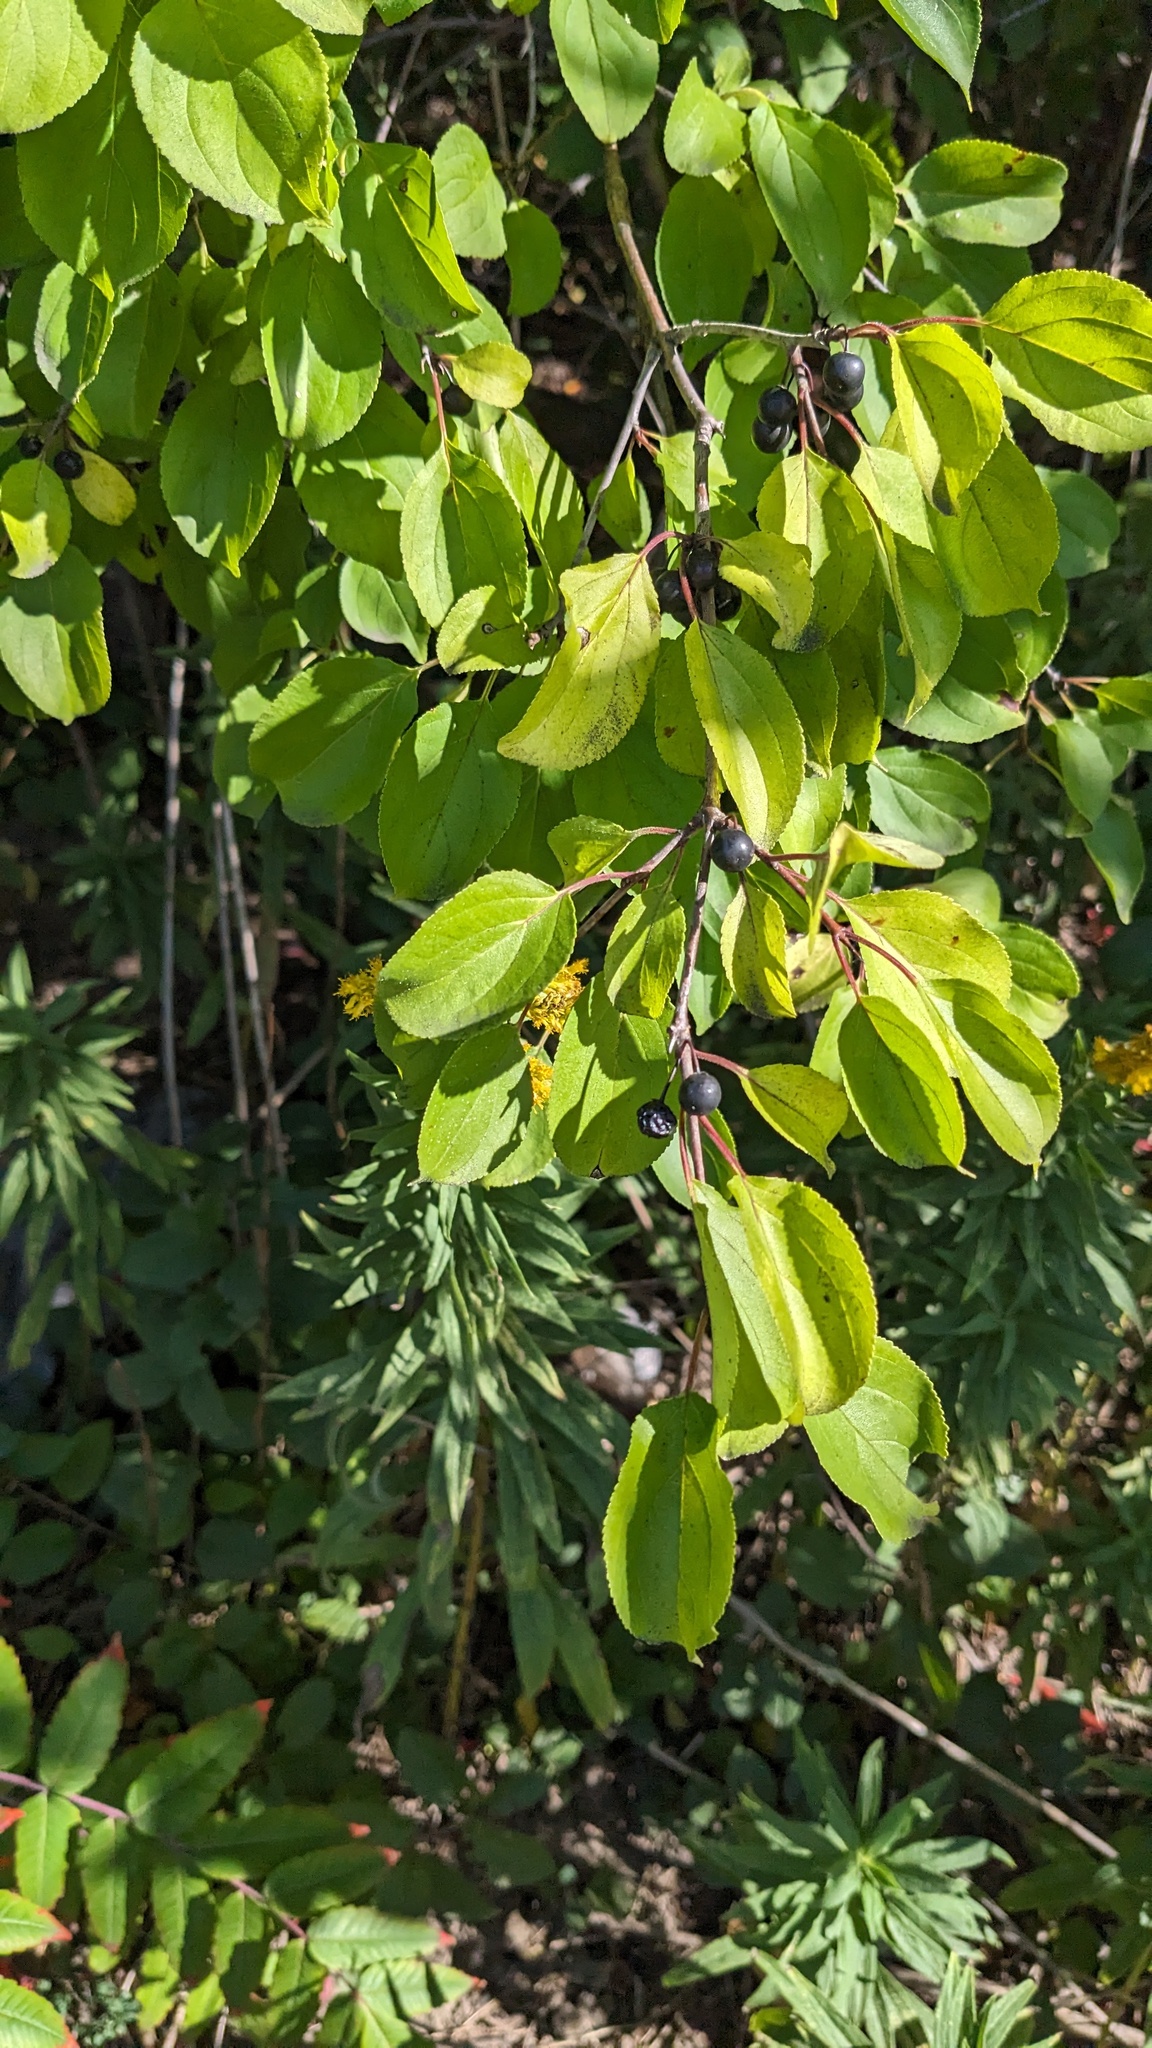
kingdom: Plantae
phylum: Tracheophyta
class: Magnoliopsida
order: Rosales
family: Rhamnaceae
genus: Rhamnus
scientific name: Rhamnus cathartica
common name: Common buckthorn
